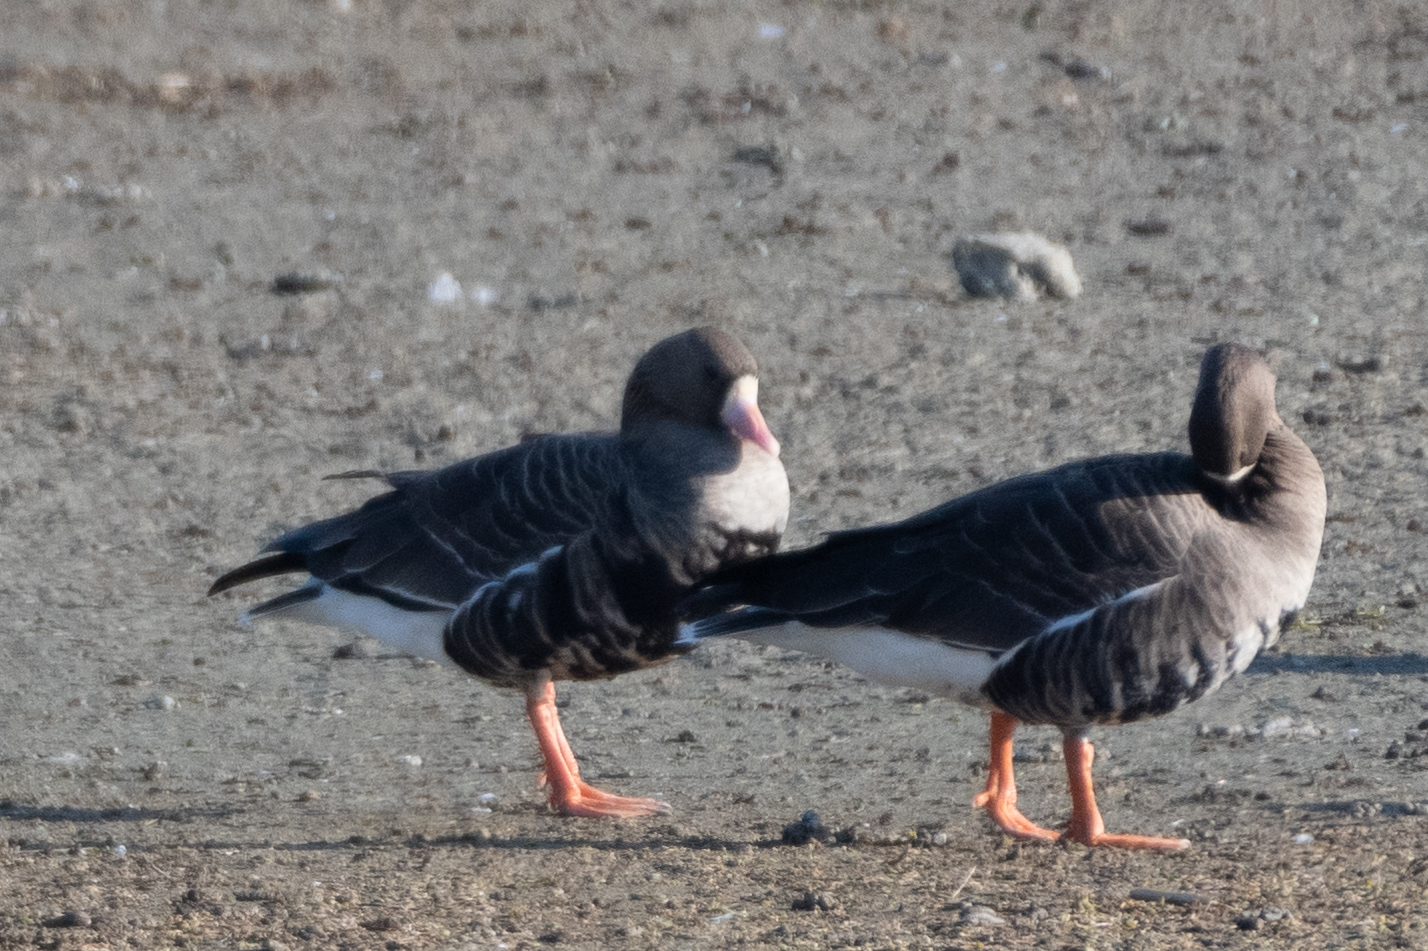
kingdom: Animalia
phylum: Chordata
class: Aves
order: Anseriformes
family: Anatidae
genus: Anser
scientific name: Anser albifrons
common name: Greater white-fronted goose
